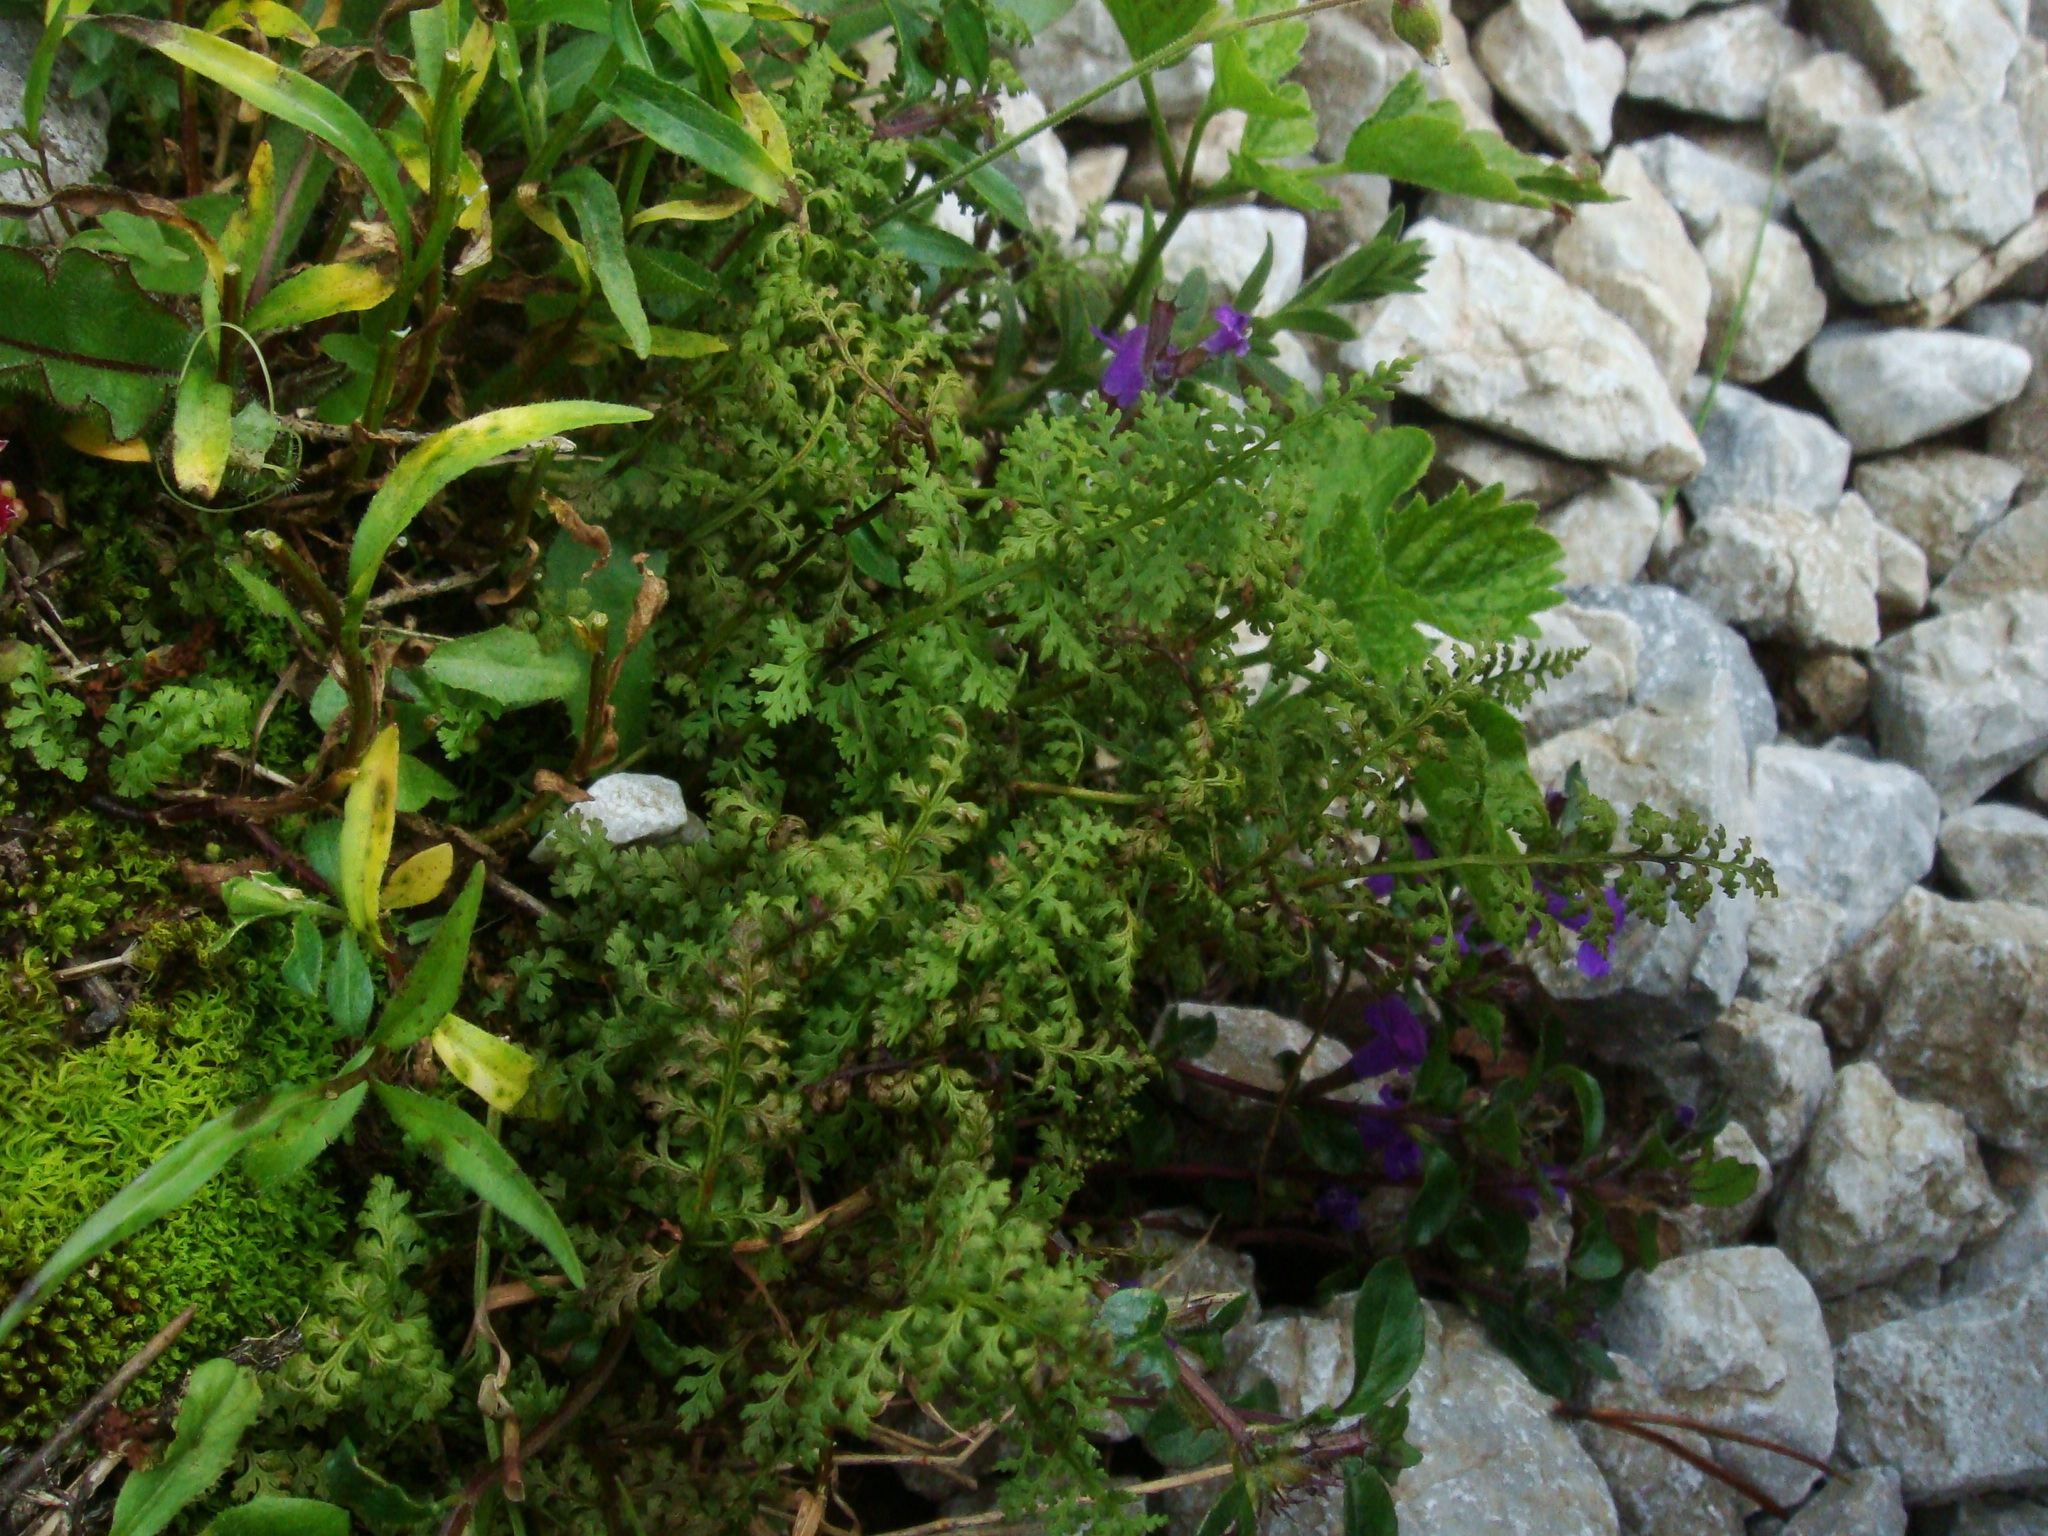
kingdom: Plantae
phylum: Tracheophyta
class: Polypodiopsida
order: Polypodiales
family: Cystopteridaceae
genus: Cystopteris
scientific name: Cystopteris alpina
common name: Alpine bladder-fern
